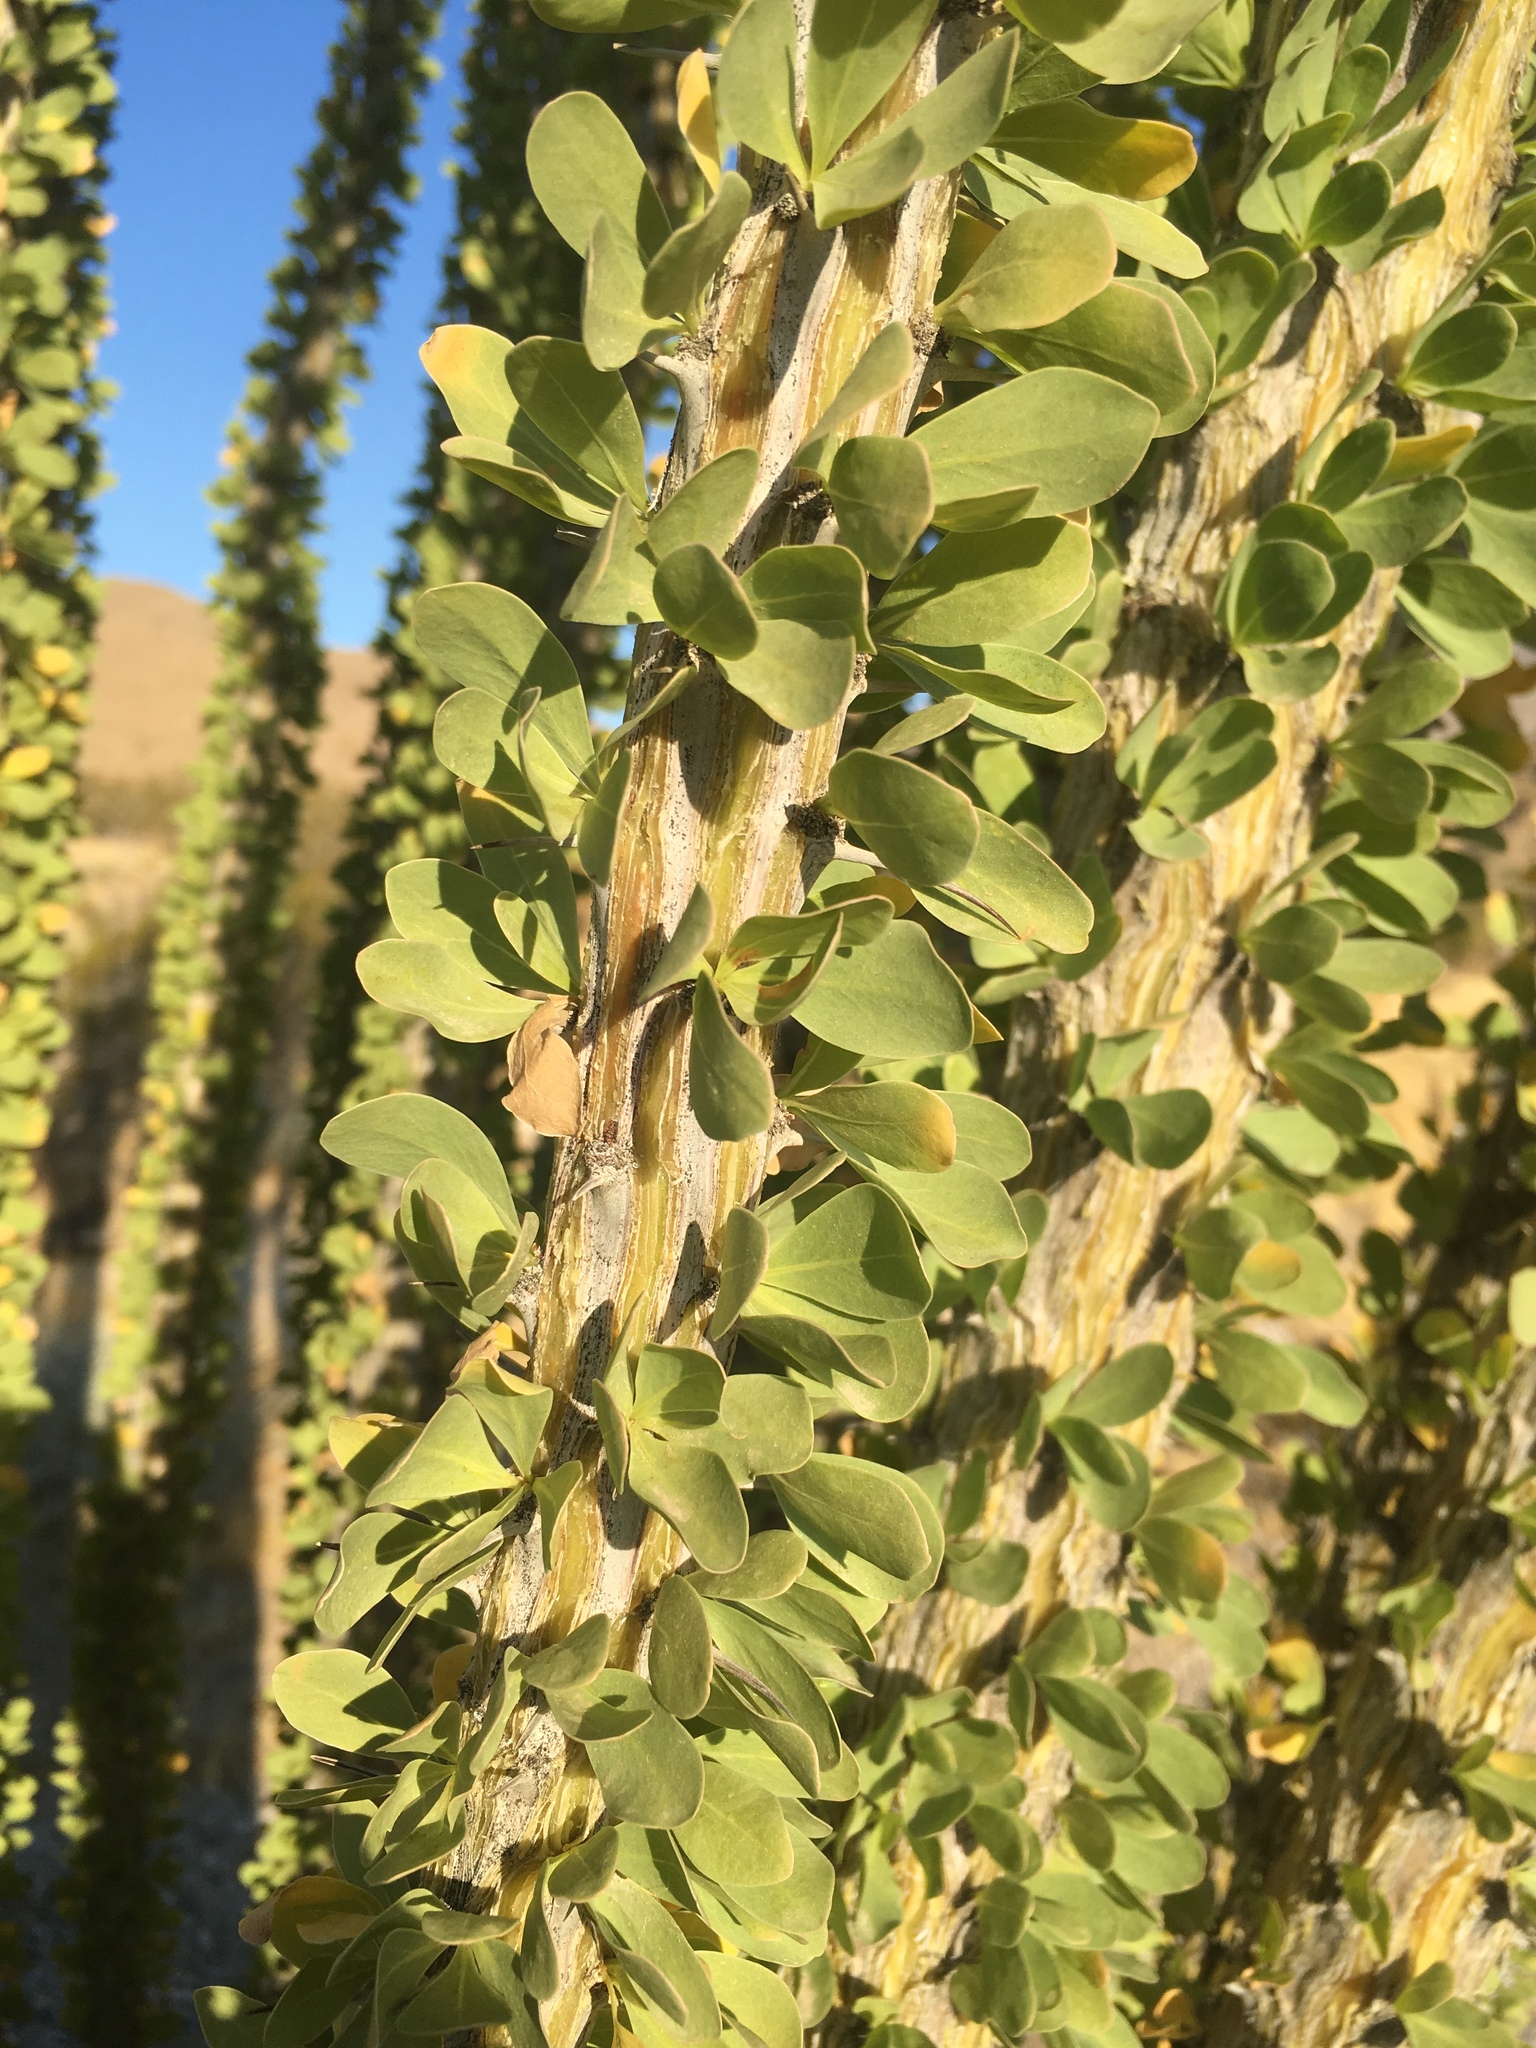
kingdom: Plantae
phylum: Tracheophyta
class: Magnoliopsida
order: Ericales
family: Fouquieriaceae
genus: Fouquieria
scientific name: Fouquieria splendens
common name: Vine-cactus
